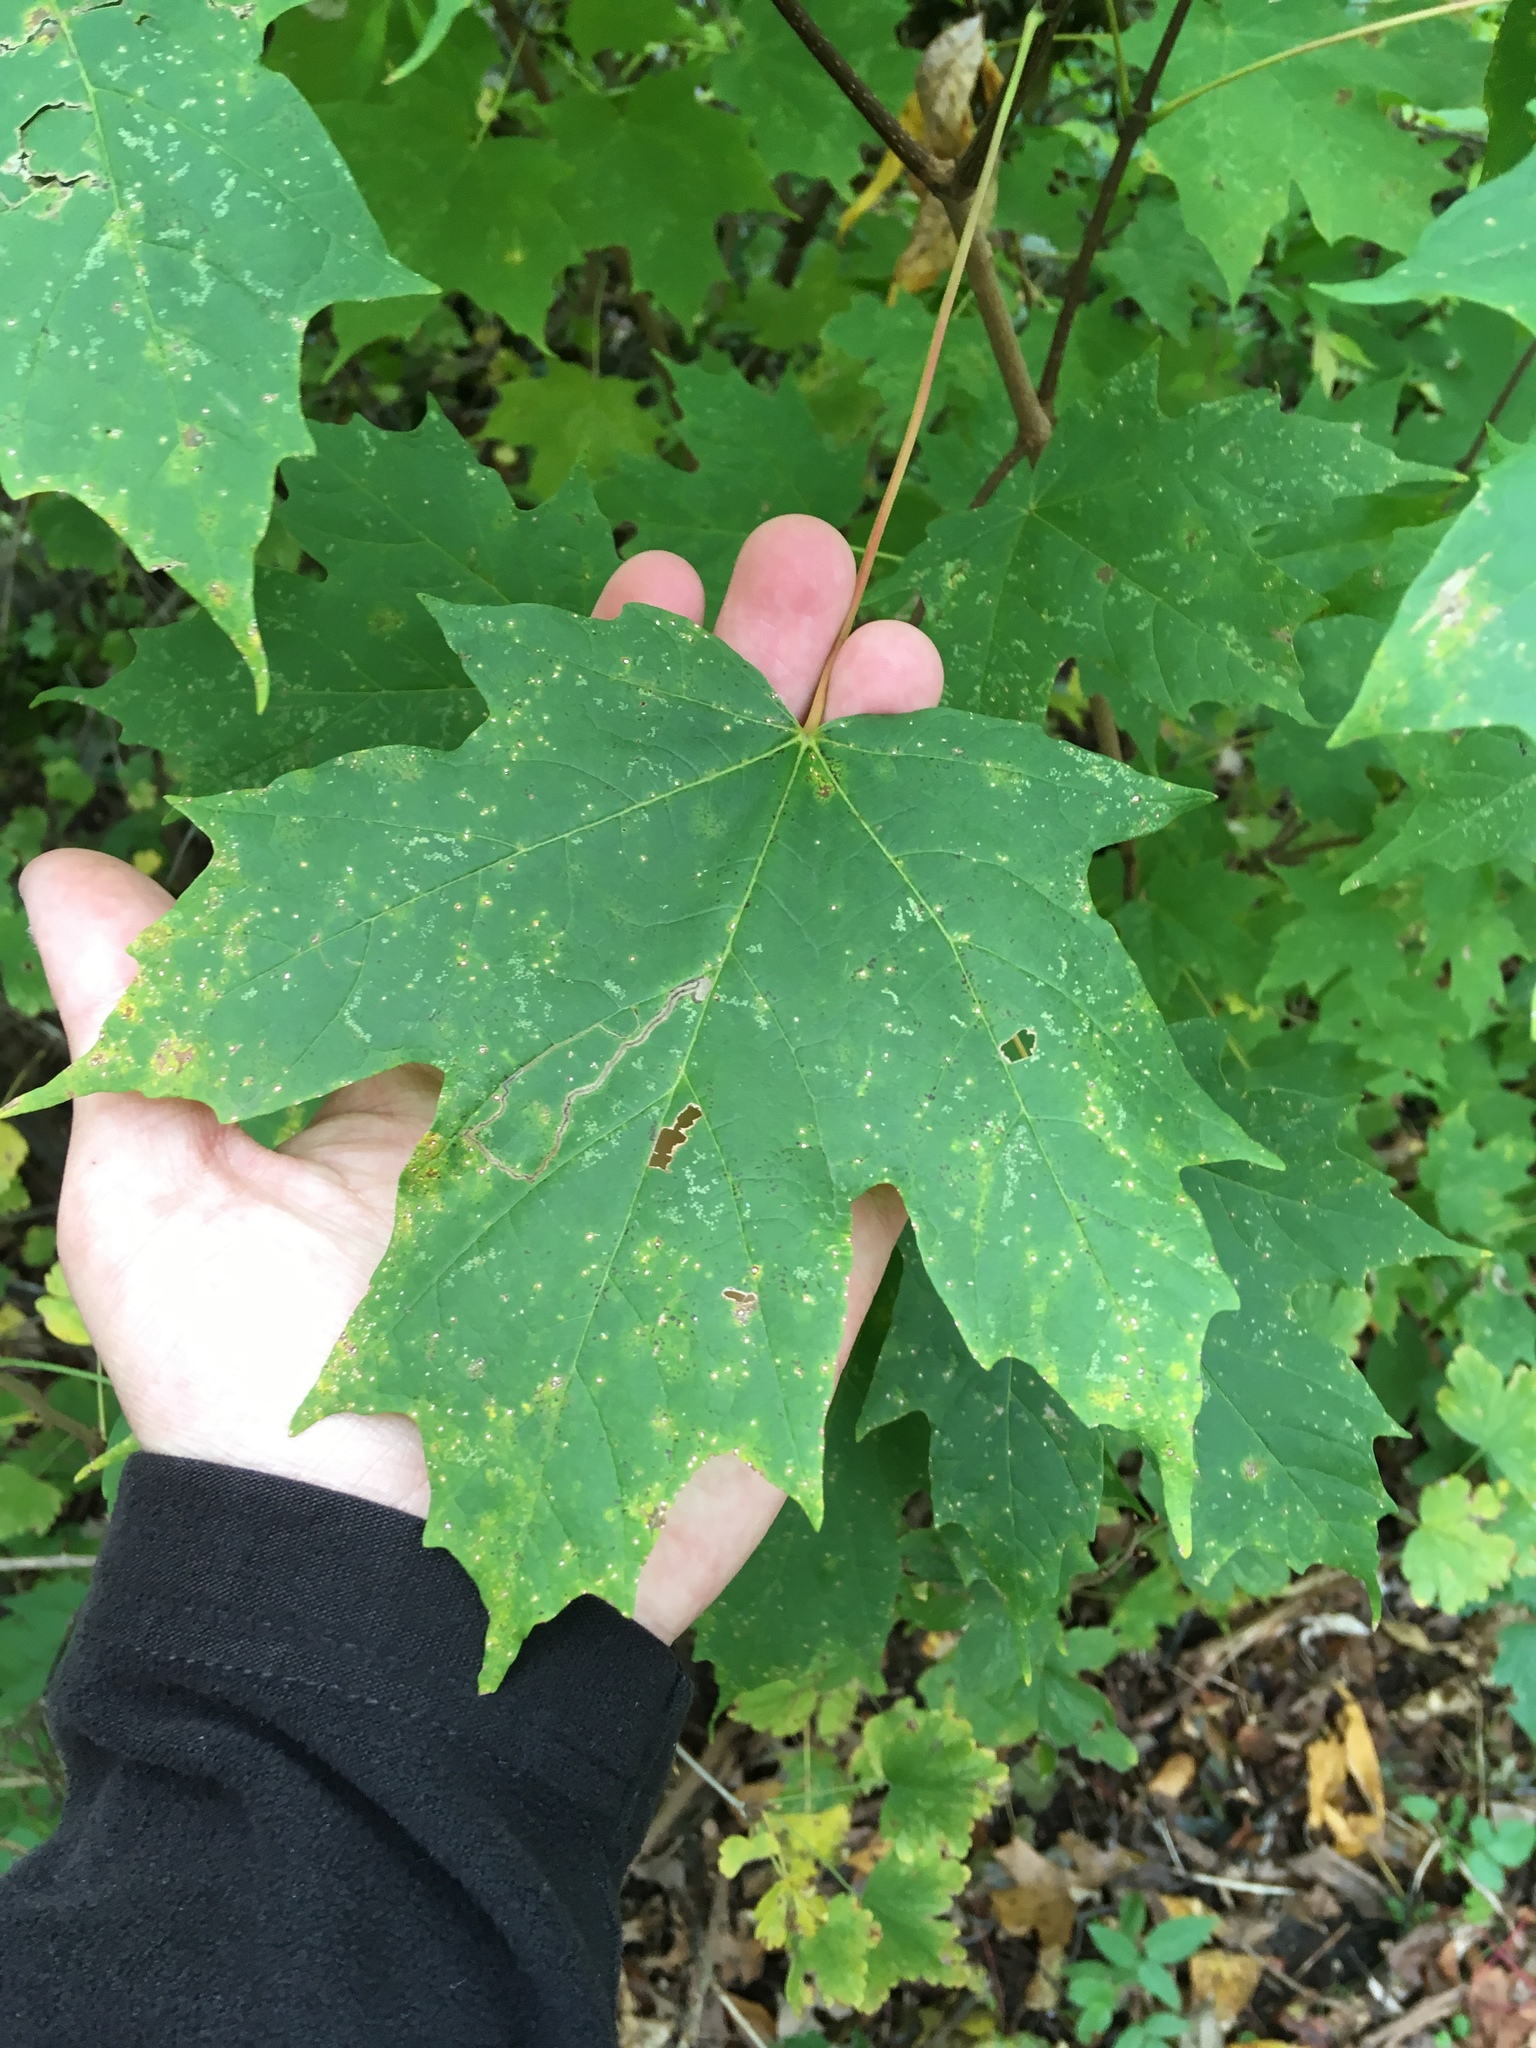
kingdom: Plantae
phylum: Tracheophyta
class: Magnoliopsida
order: Sapindales
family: Sapindaceae
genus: Acer
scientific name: Acer saccharum
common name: Sugar maple
